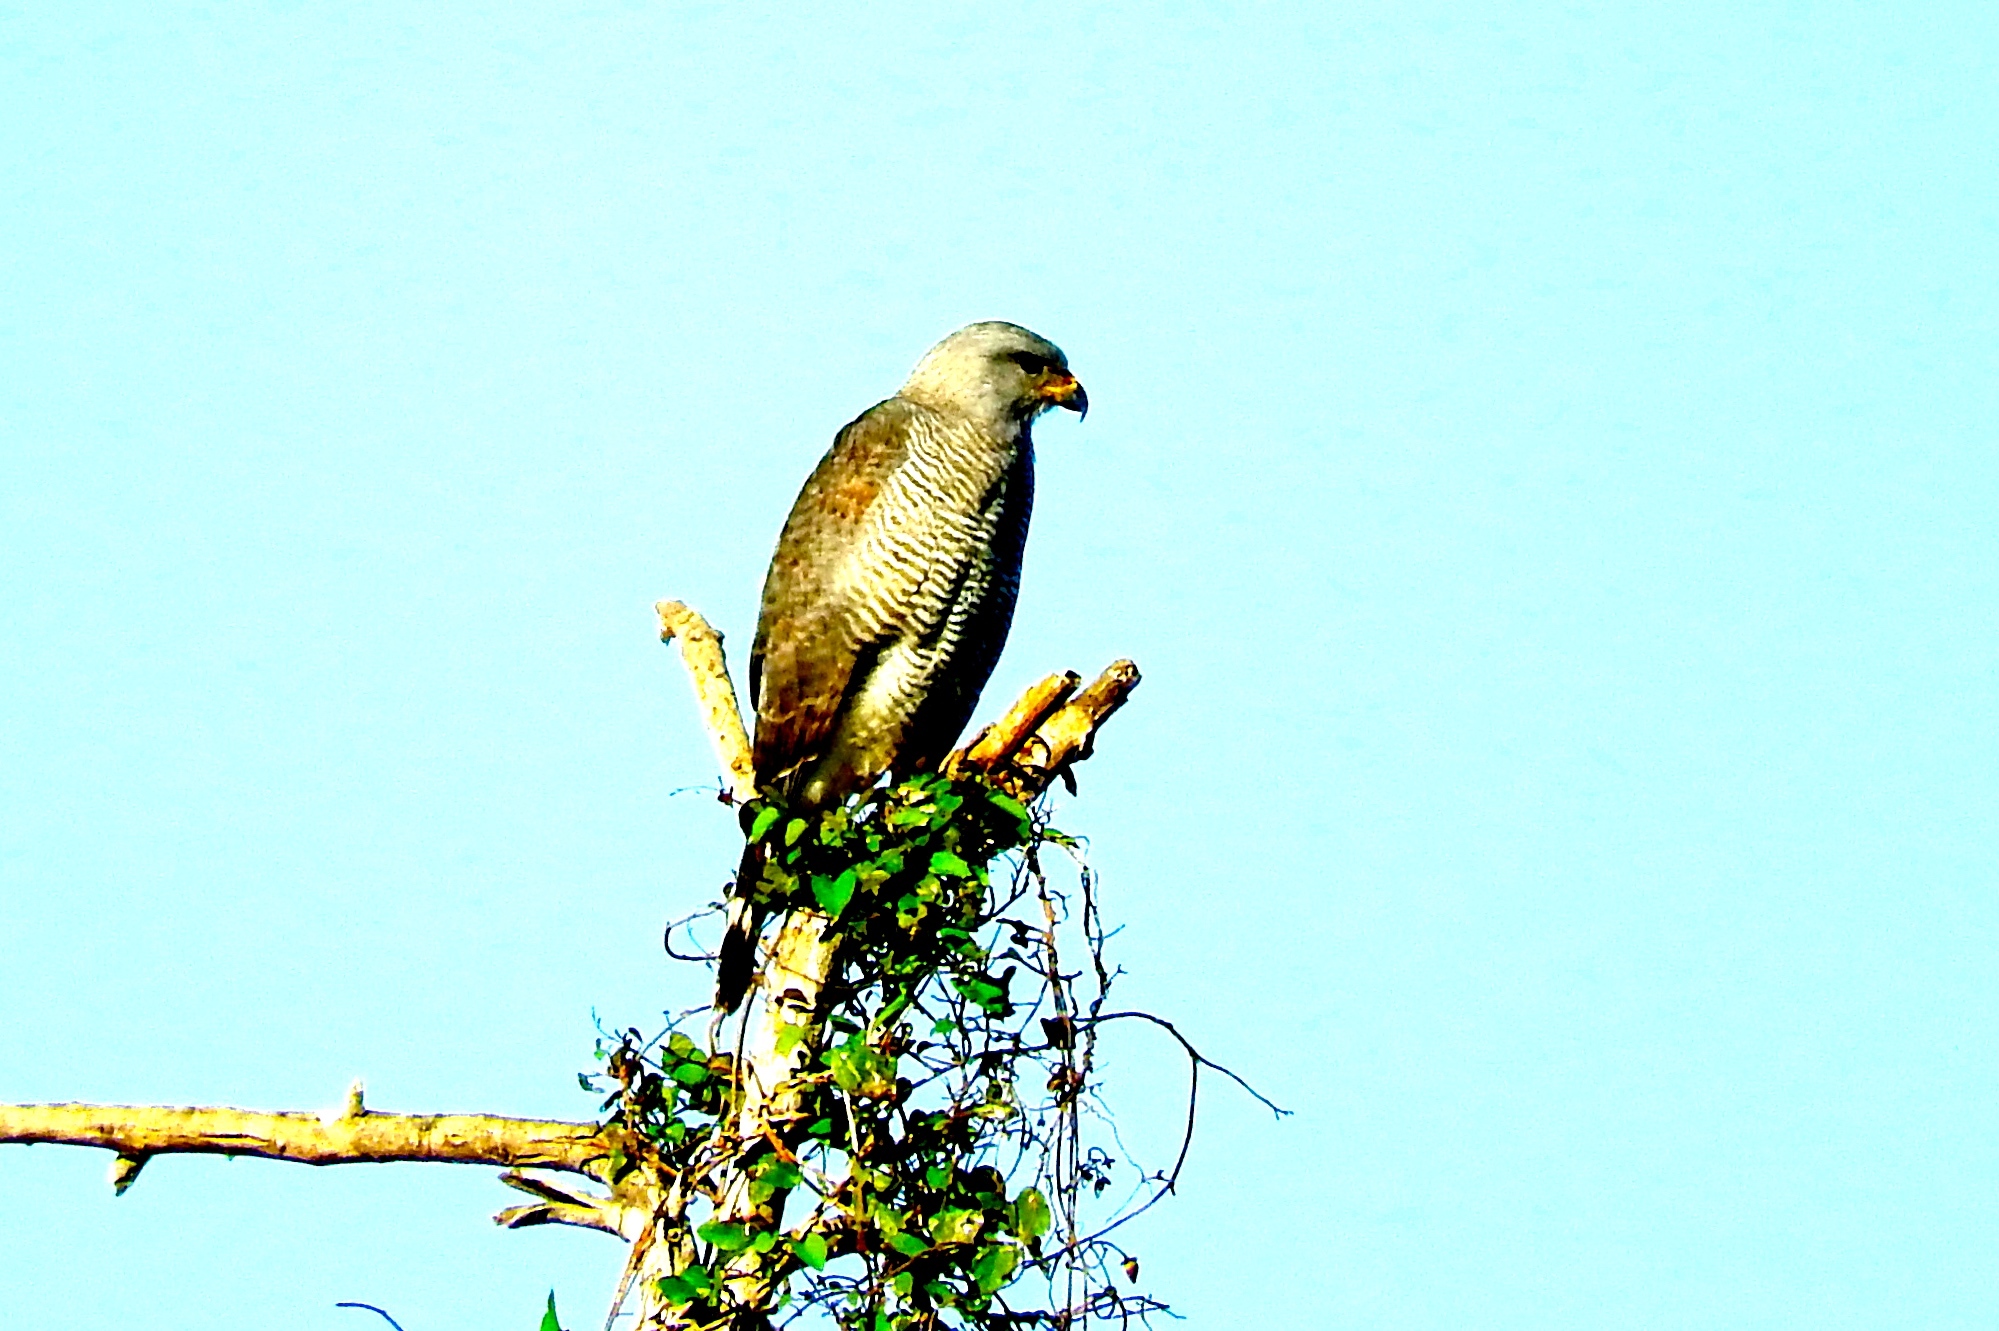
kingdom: Animalia
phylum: Chordata
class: Aves
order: Accipitriformes
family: Accipitridae
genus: Buteo
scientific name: Buteo nitidus
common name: Grey-lined hawk
